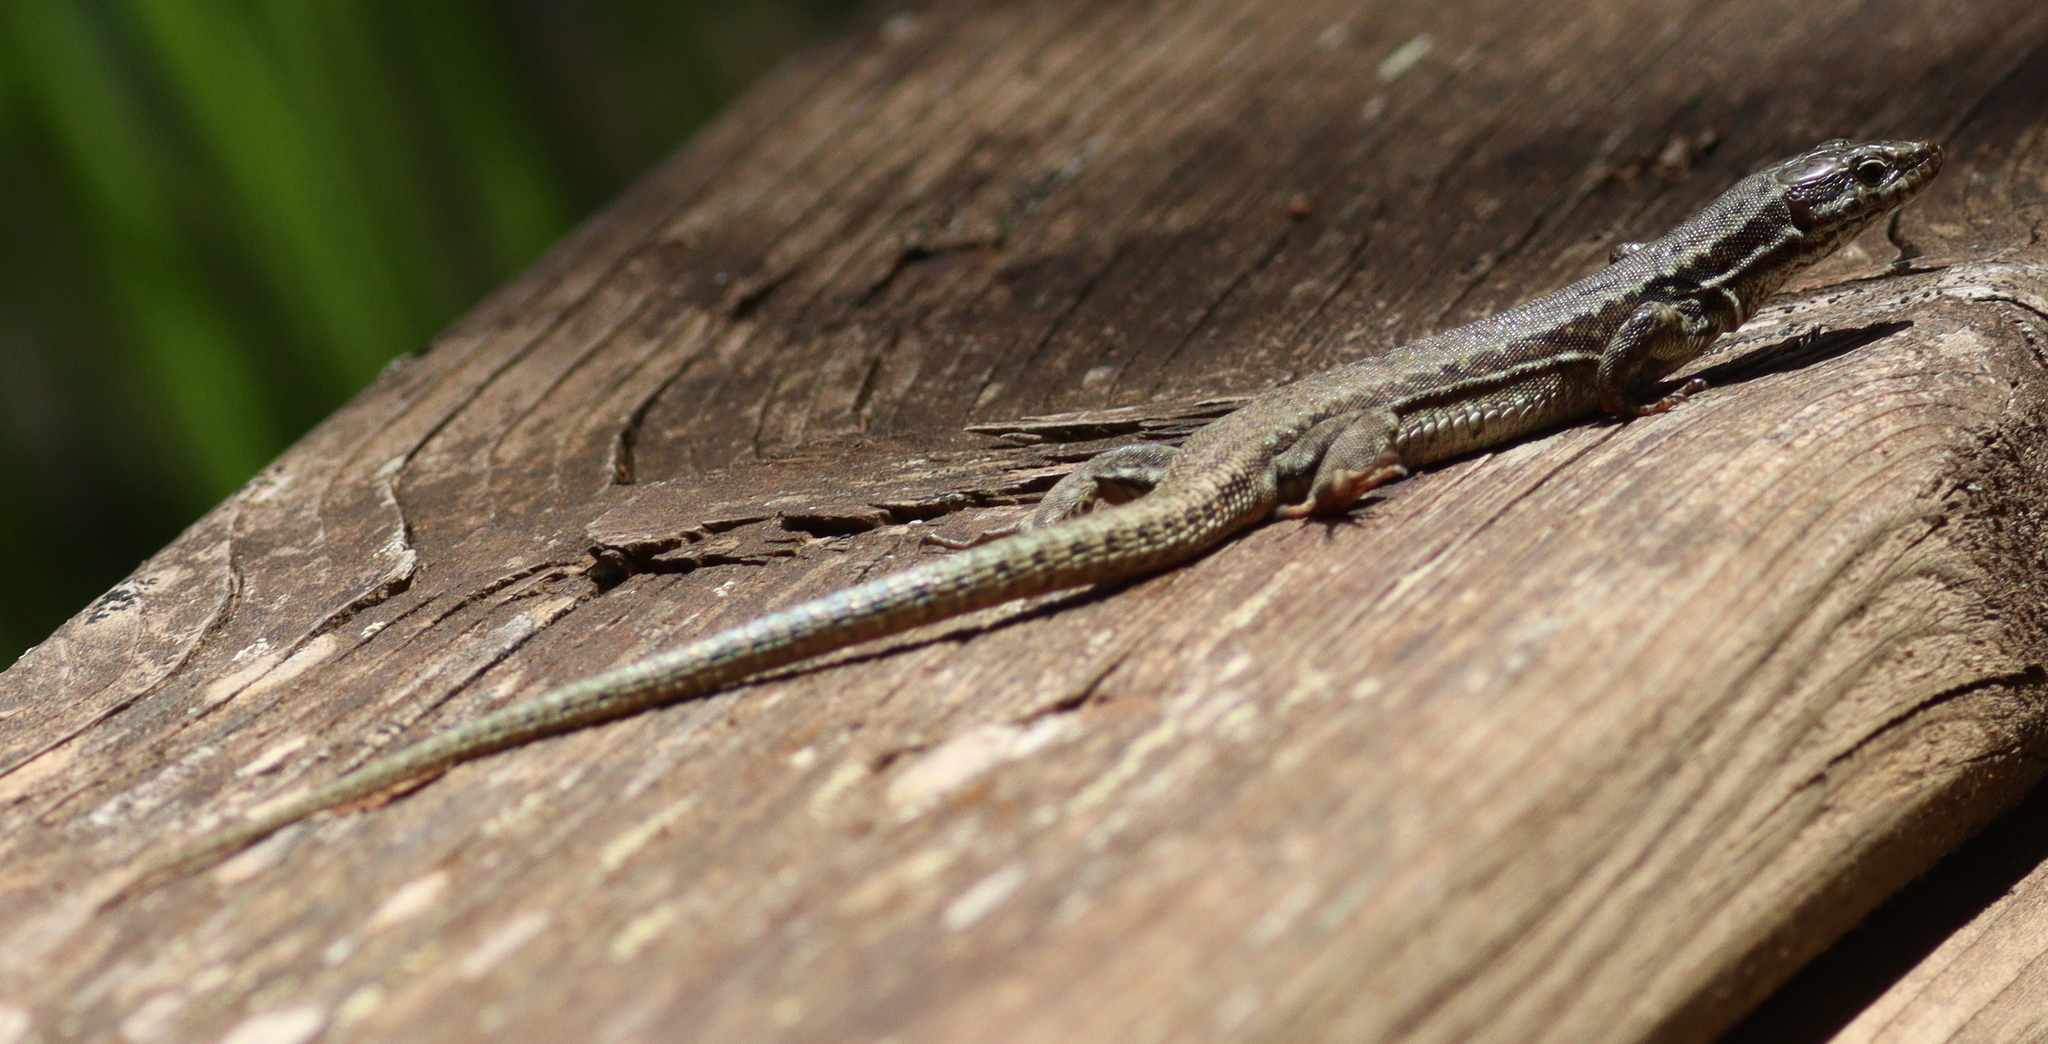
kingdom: Animalia
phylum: Chordata
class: Squamata
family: Lacertidae
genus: Podarcis
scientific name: Podarcis muralis
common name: Common wall lizard
